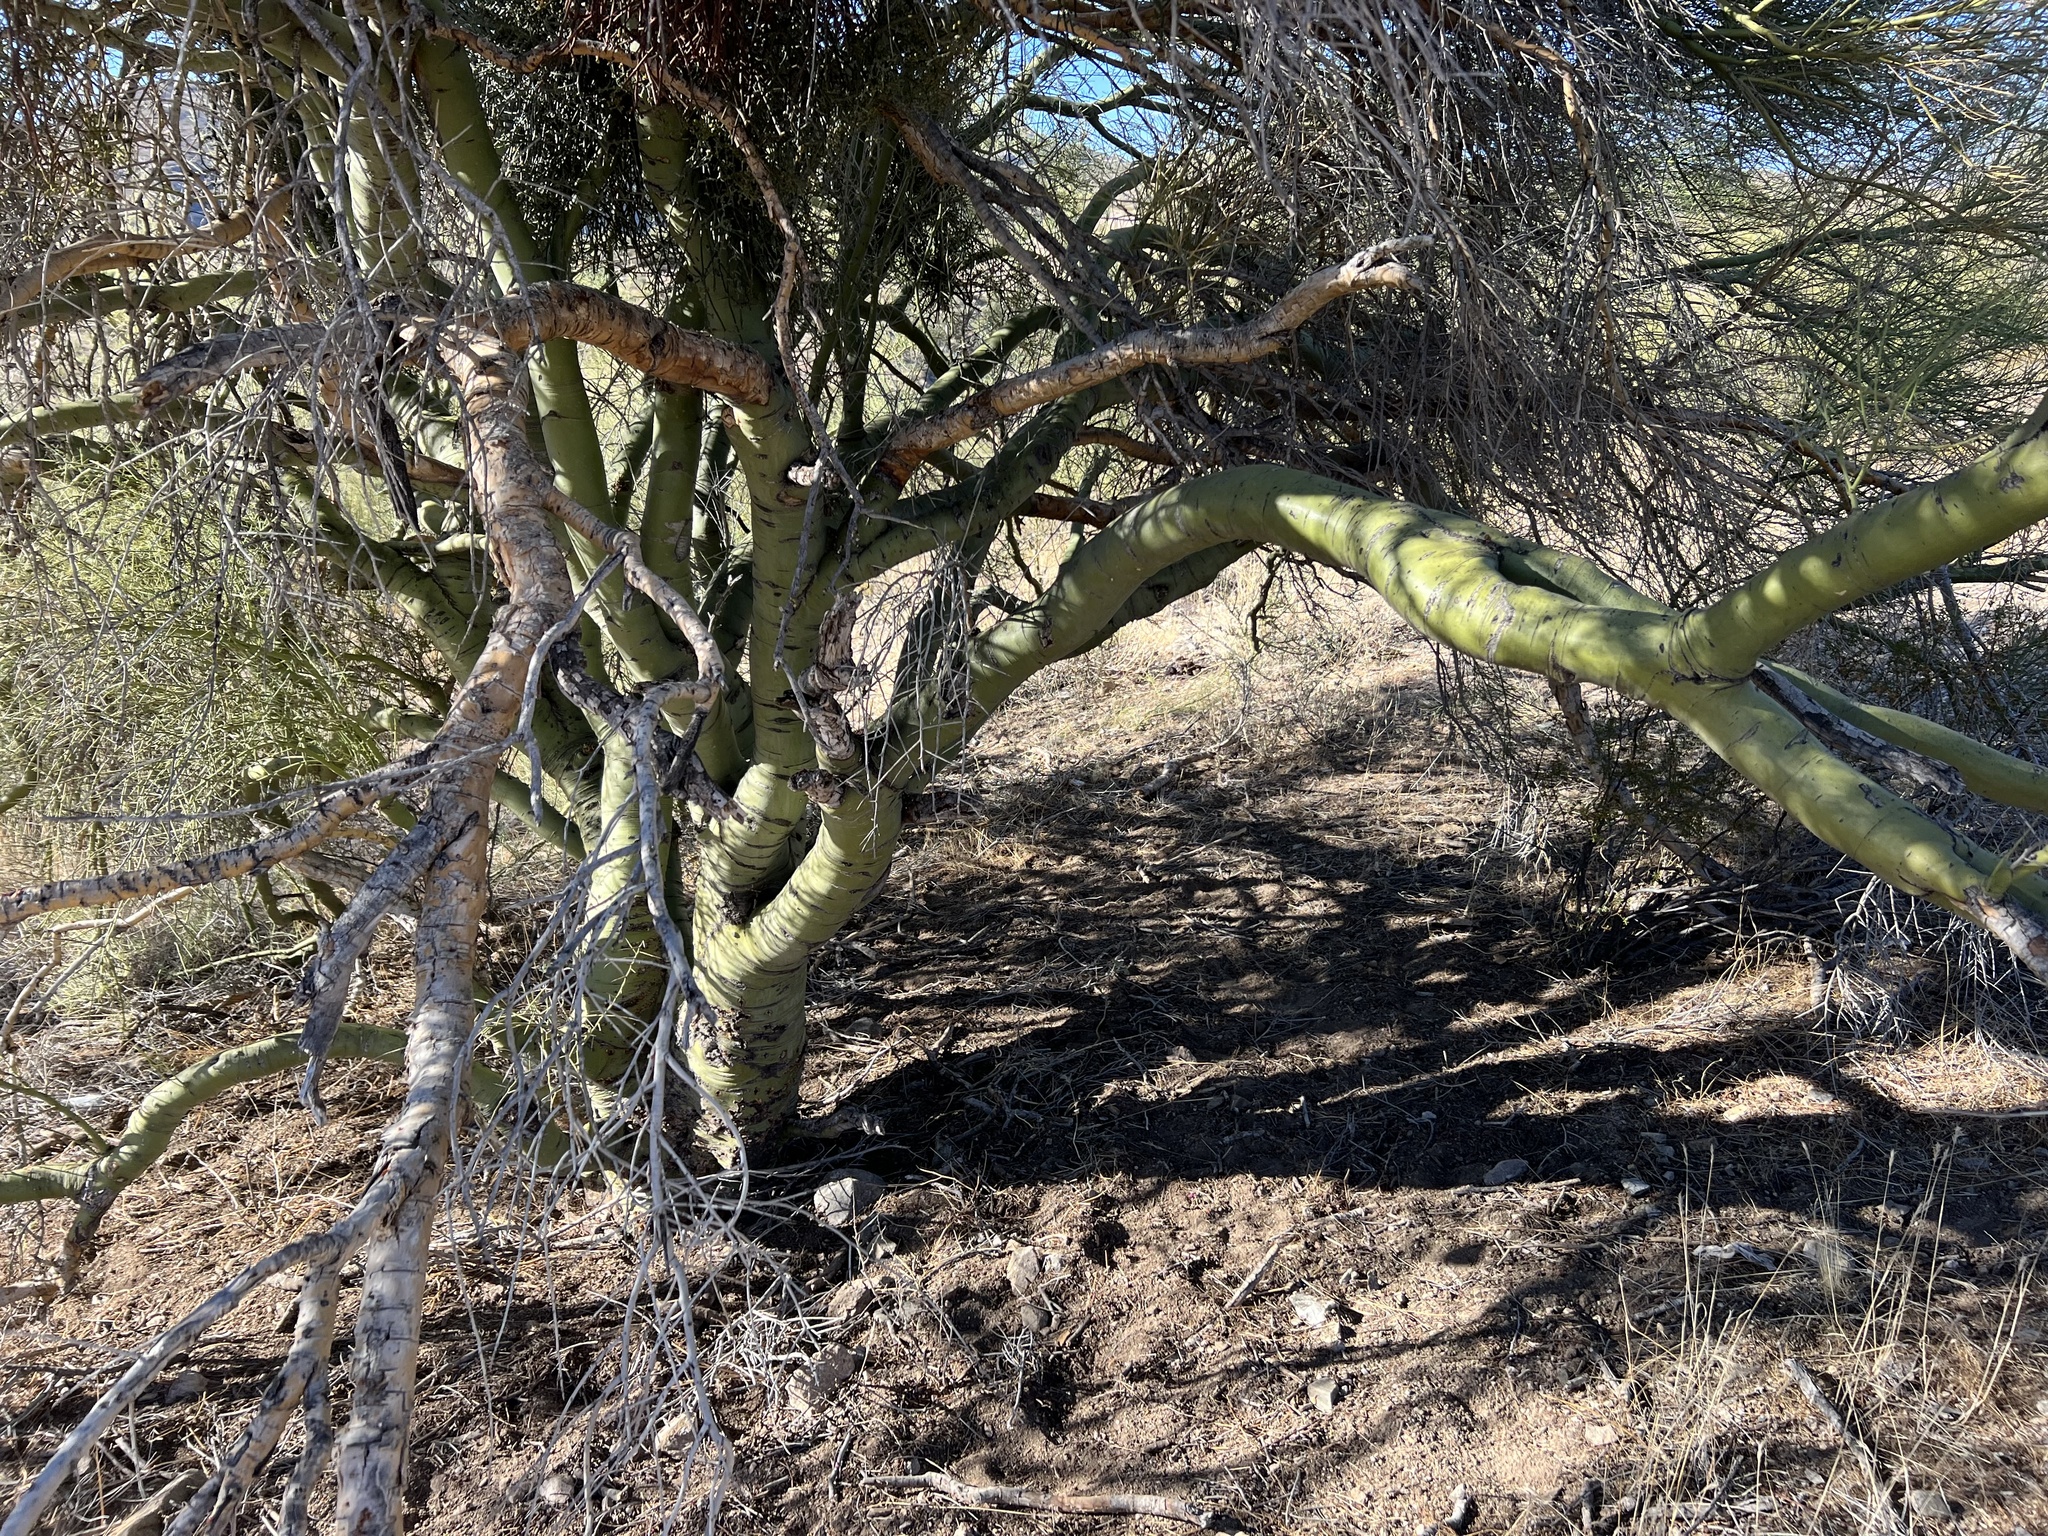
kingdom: Plantae
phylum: Tracheophyta
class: Magnoliopsida
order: Fabales
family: Fabaceae
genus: Parkinsonia
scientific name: Parkinsonia microphylla
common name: Yellow paloverde
